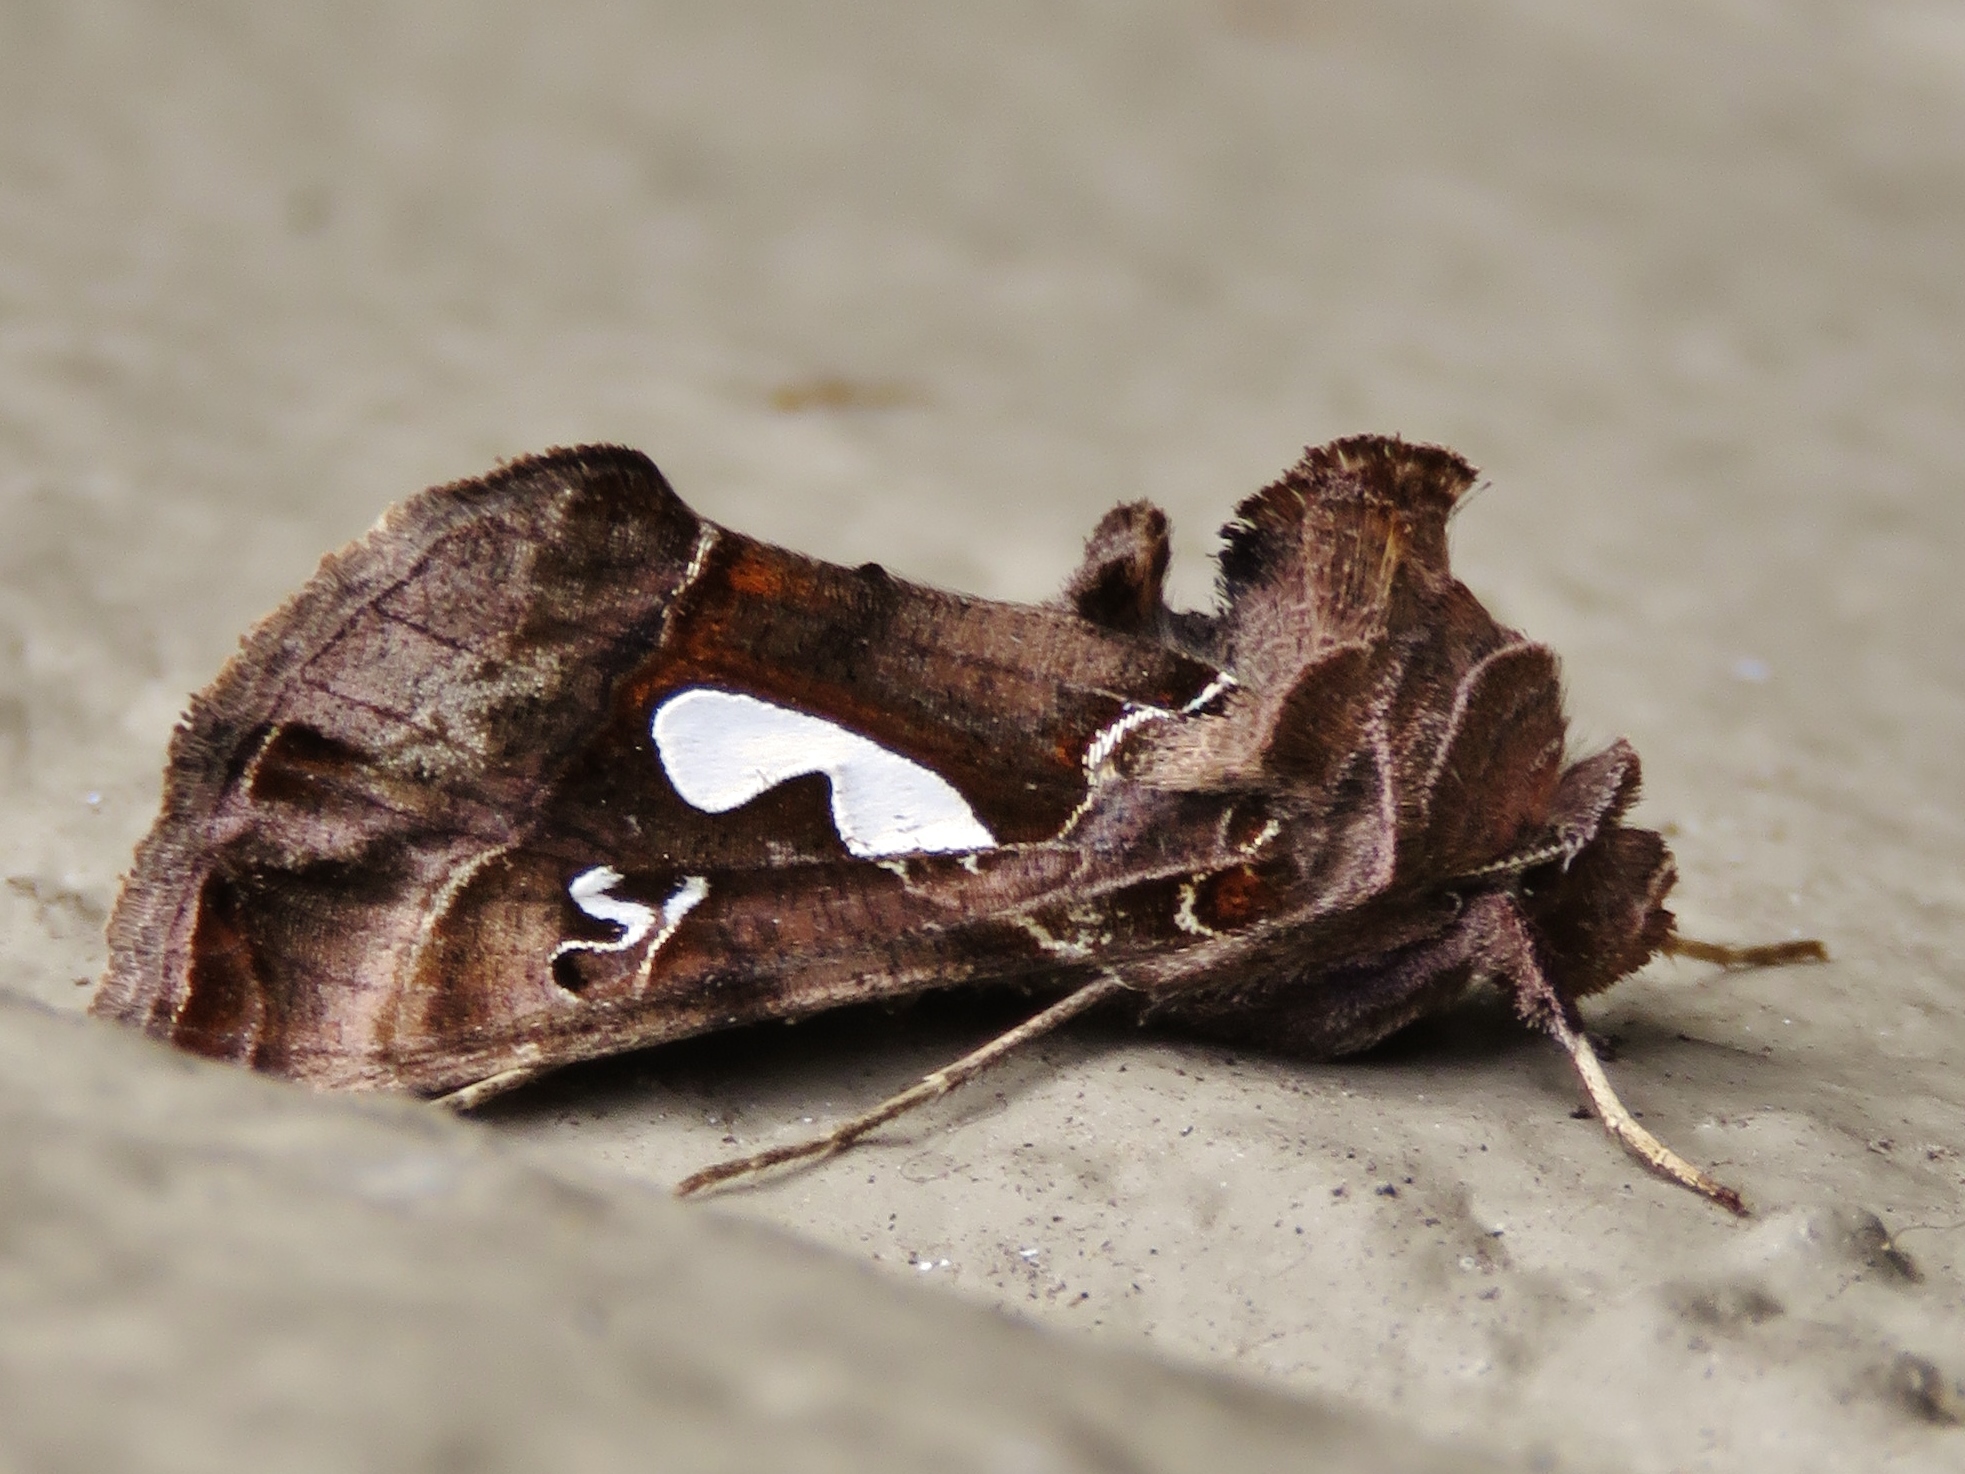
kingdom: Animalia
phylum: Arthropoda
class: Insecta
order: Lepidoptera
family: Noctuidae
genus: Megalographa
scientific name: Megalographa biloba
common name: Cutworm
